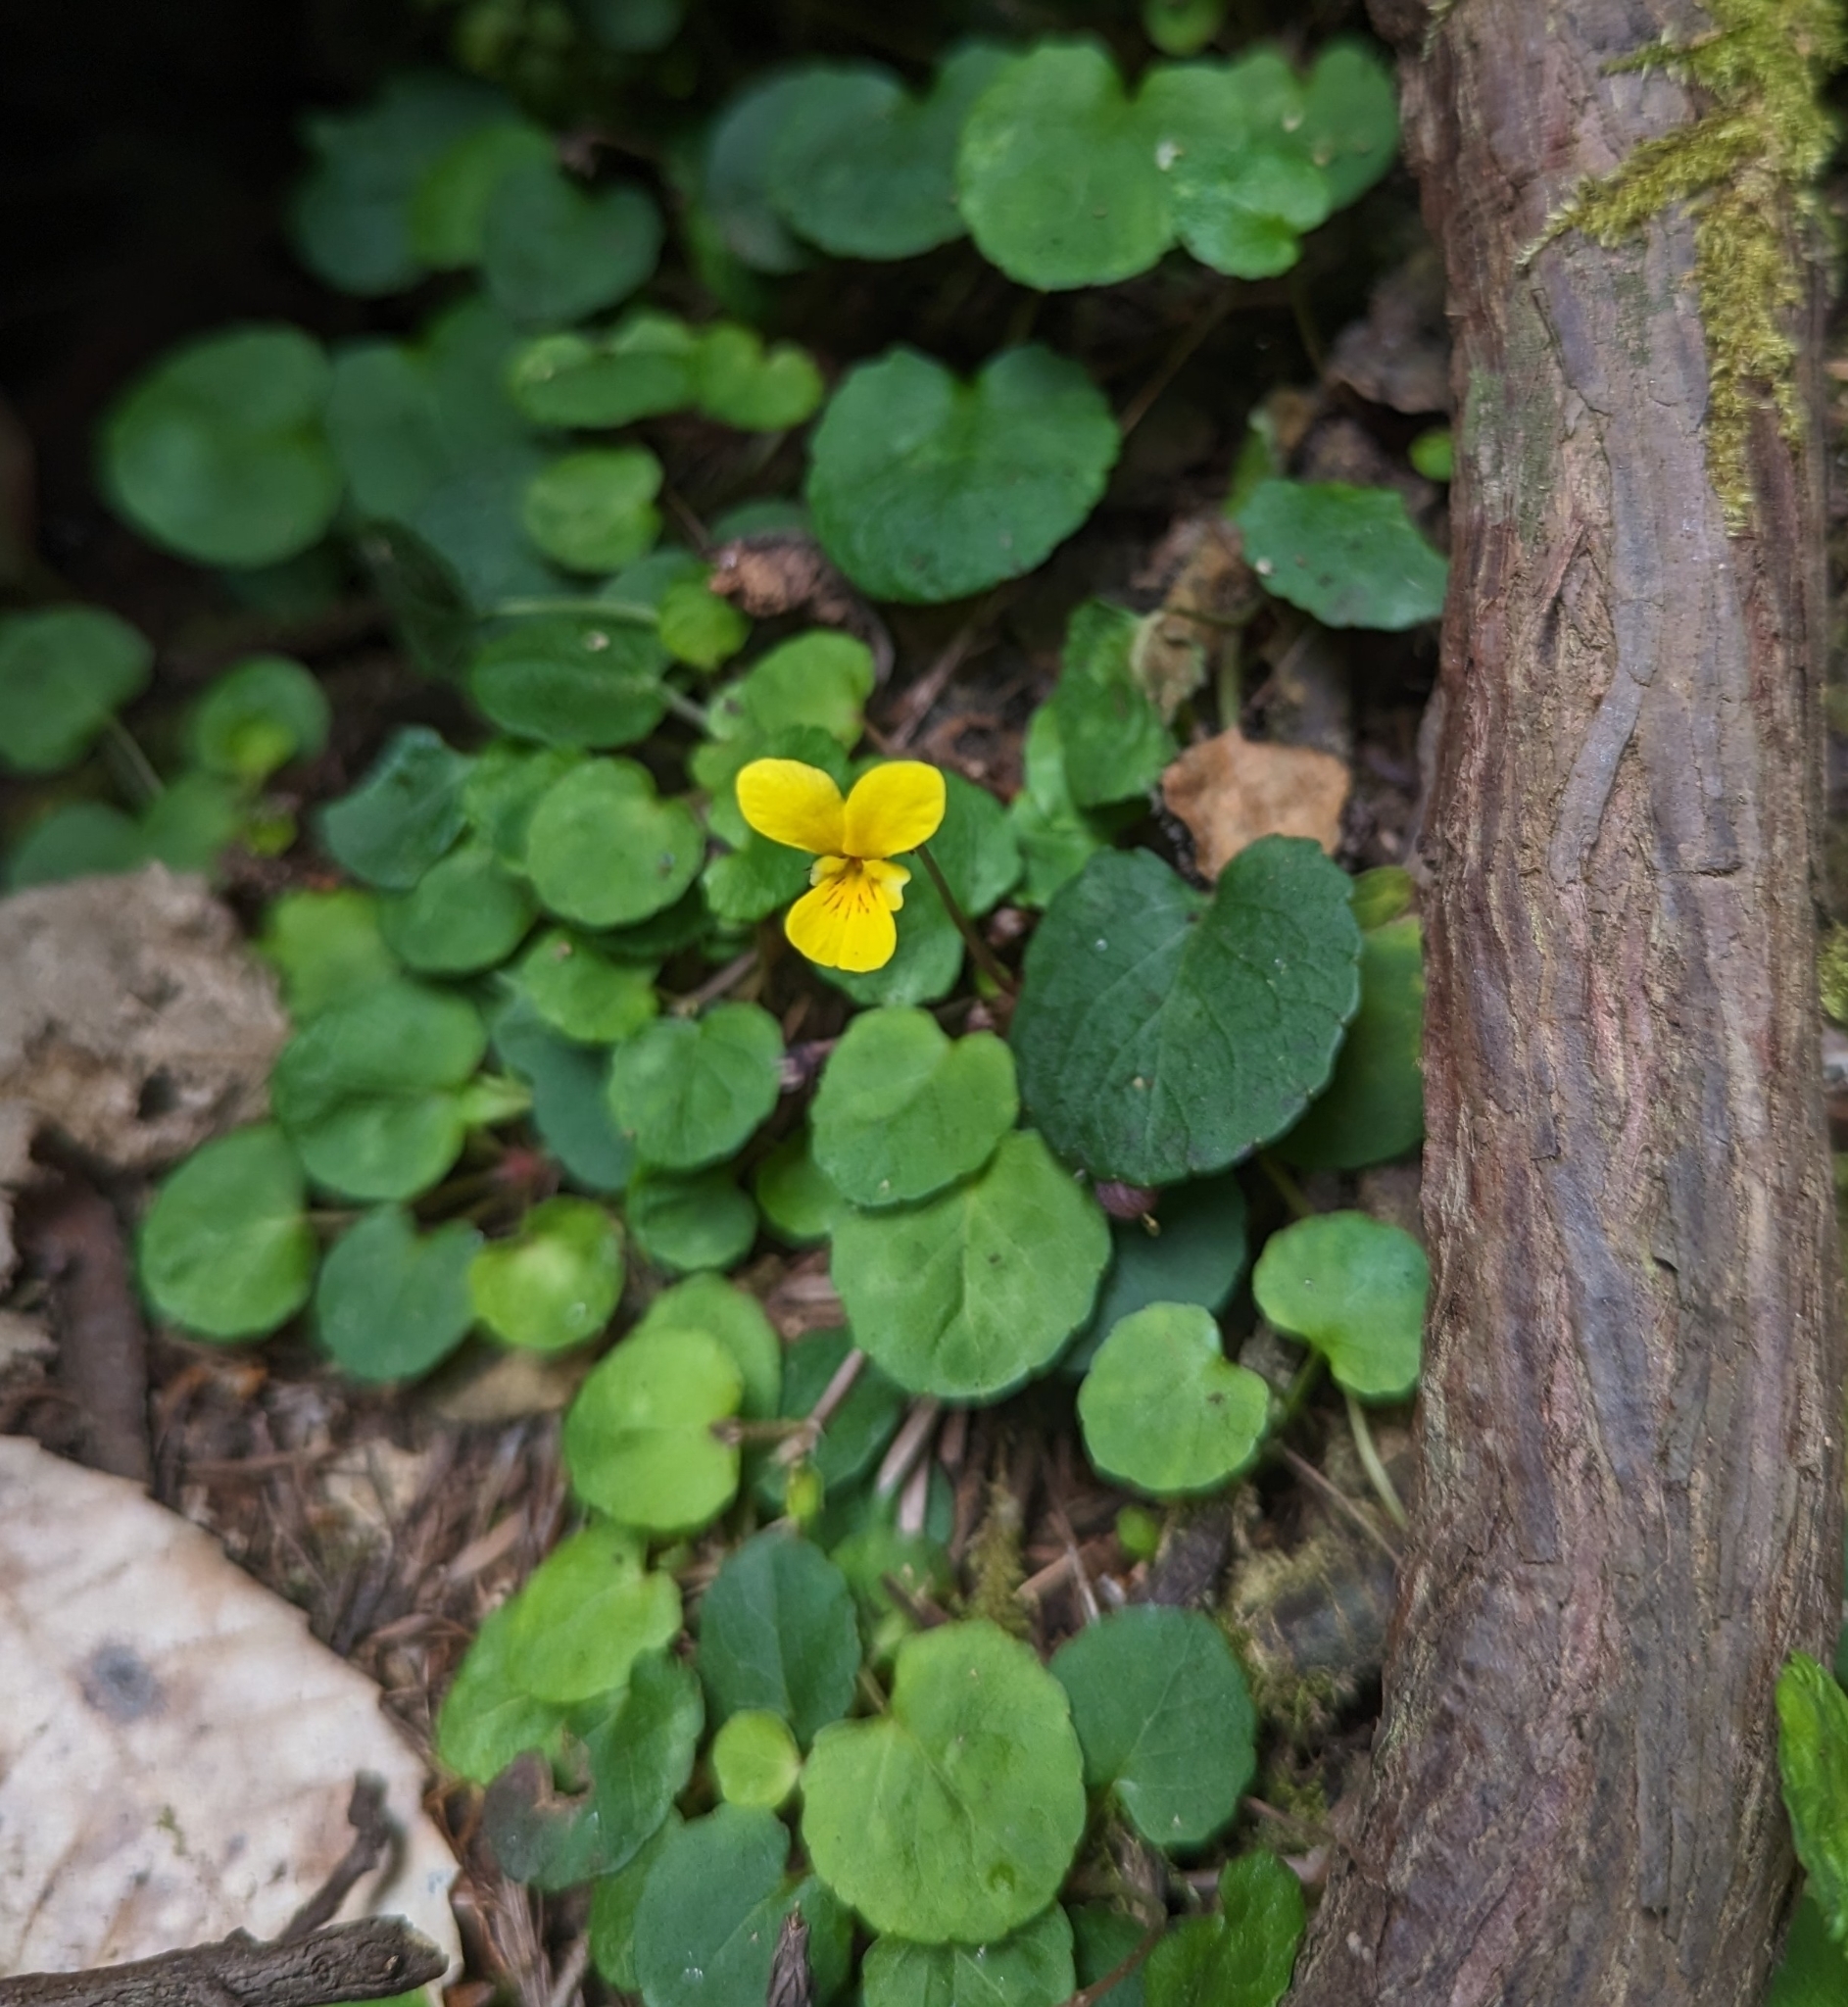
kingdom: Plantae
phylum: Tracheophyta
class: Magnoliopsida
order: Malpighiales
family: Violaceae
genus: Viola
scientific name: Viola sempervirens
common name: Evergreen violet
